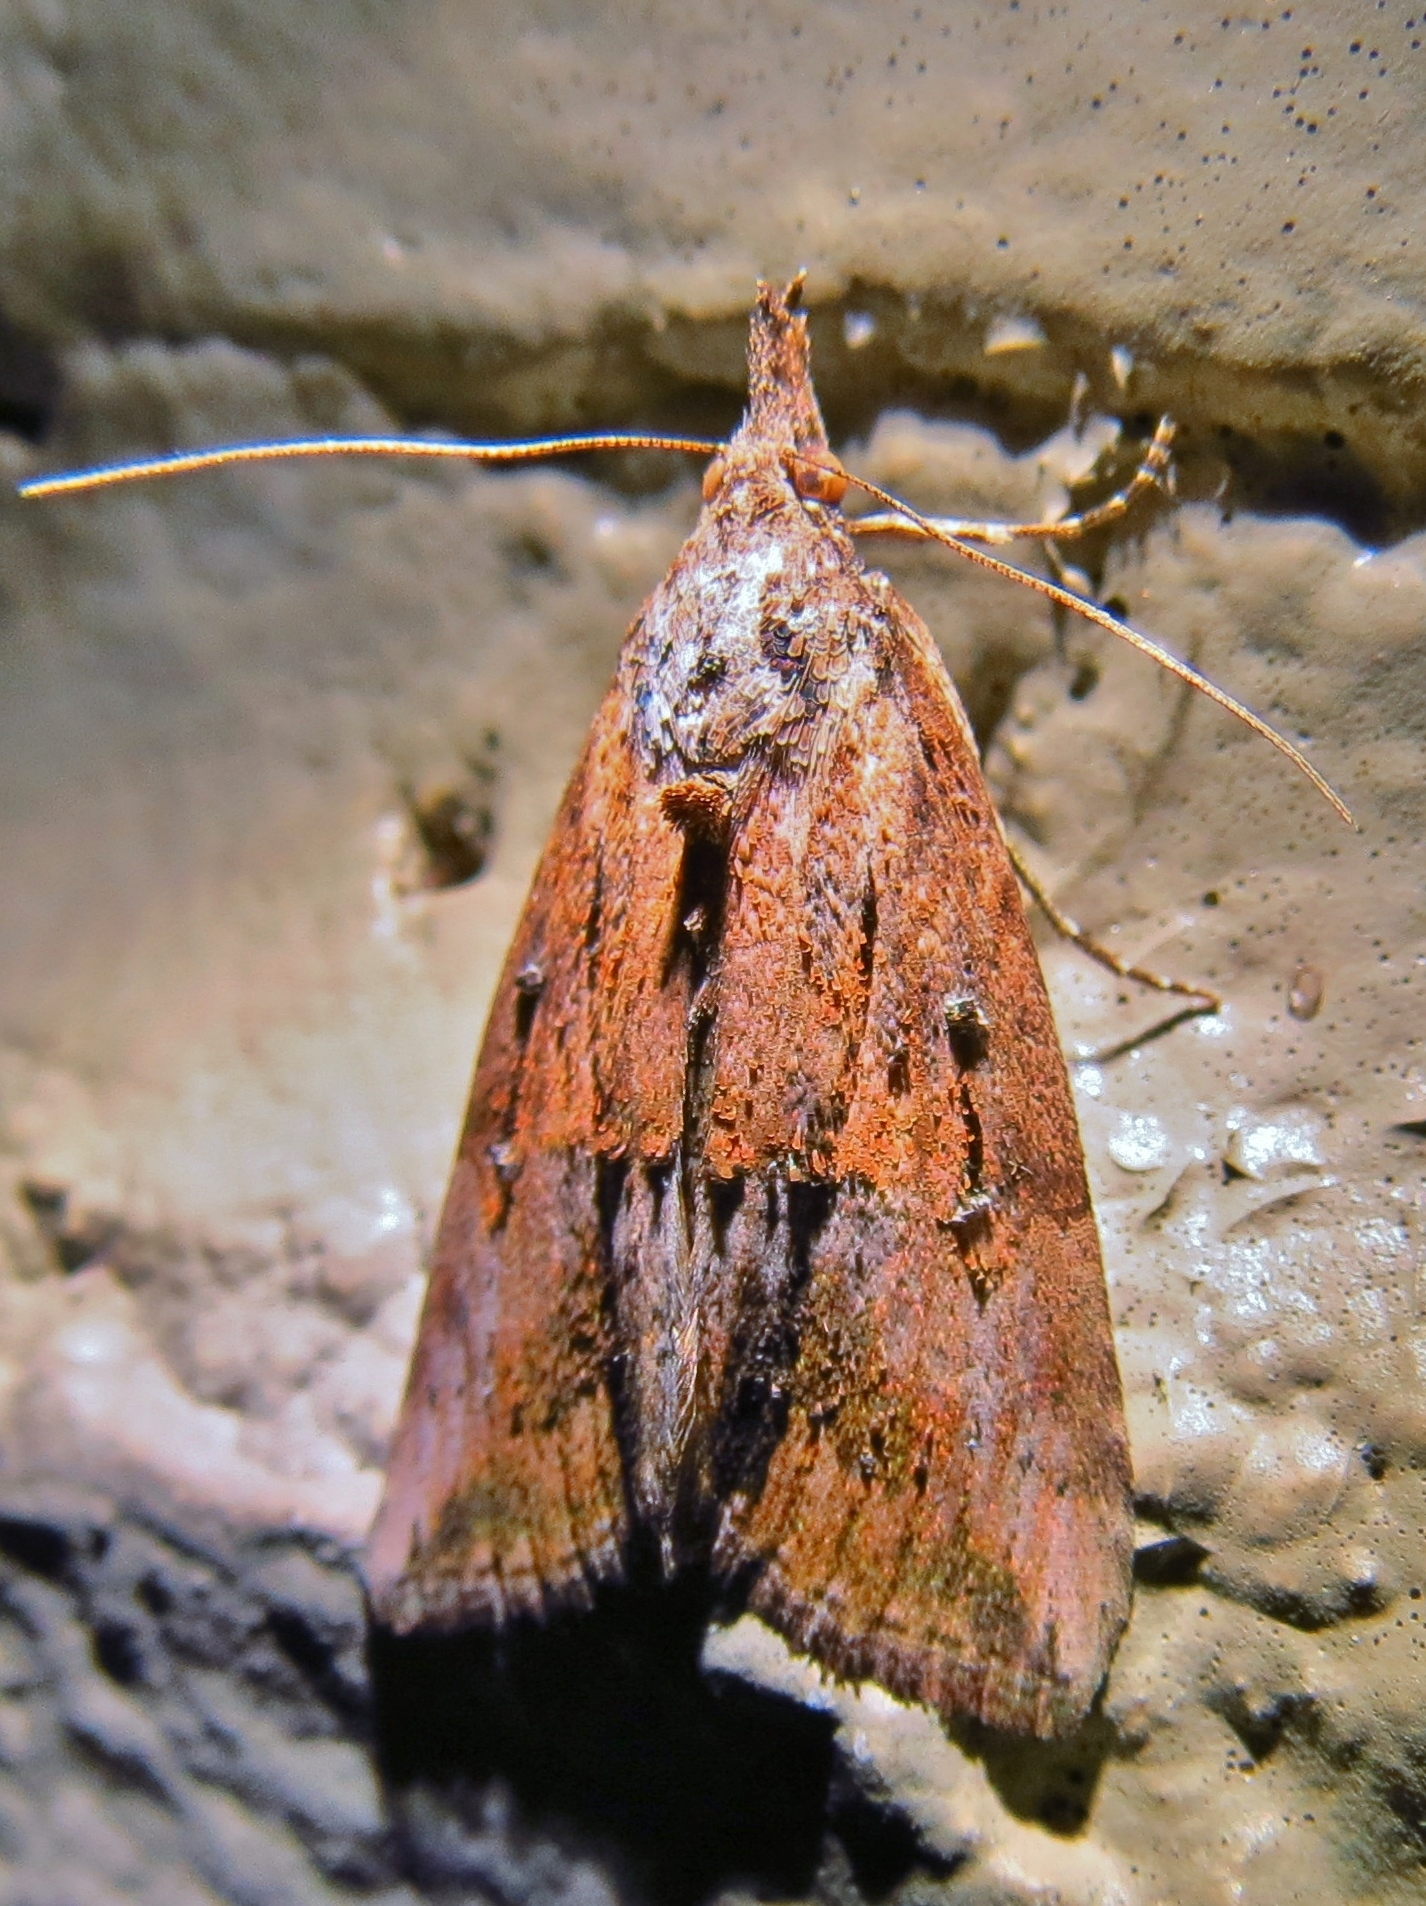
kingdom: Animalia
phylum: Arthropoda
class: Insecta
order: Lepidoptera
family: Erebidae
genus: Hypena
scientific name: Hypena scabra
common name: Green cloverworm
